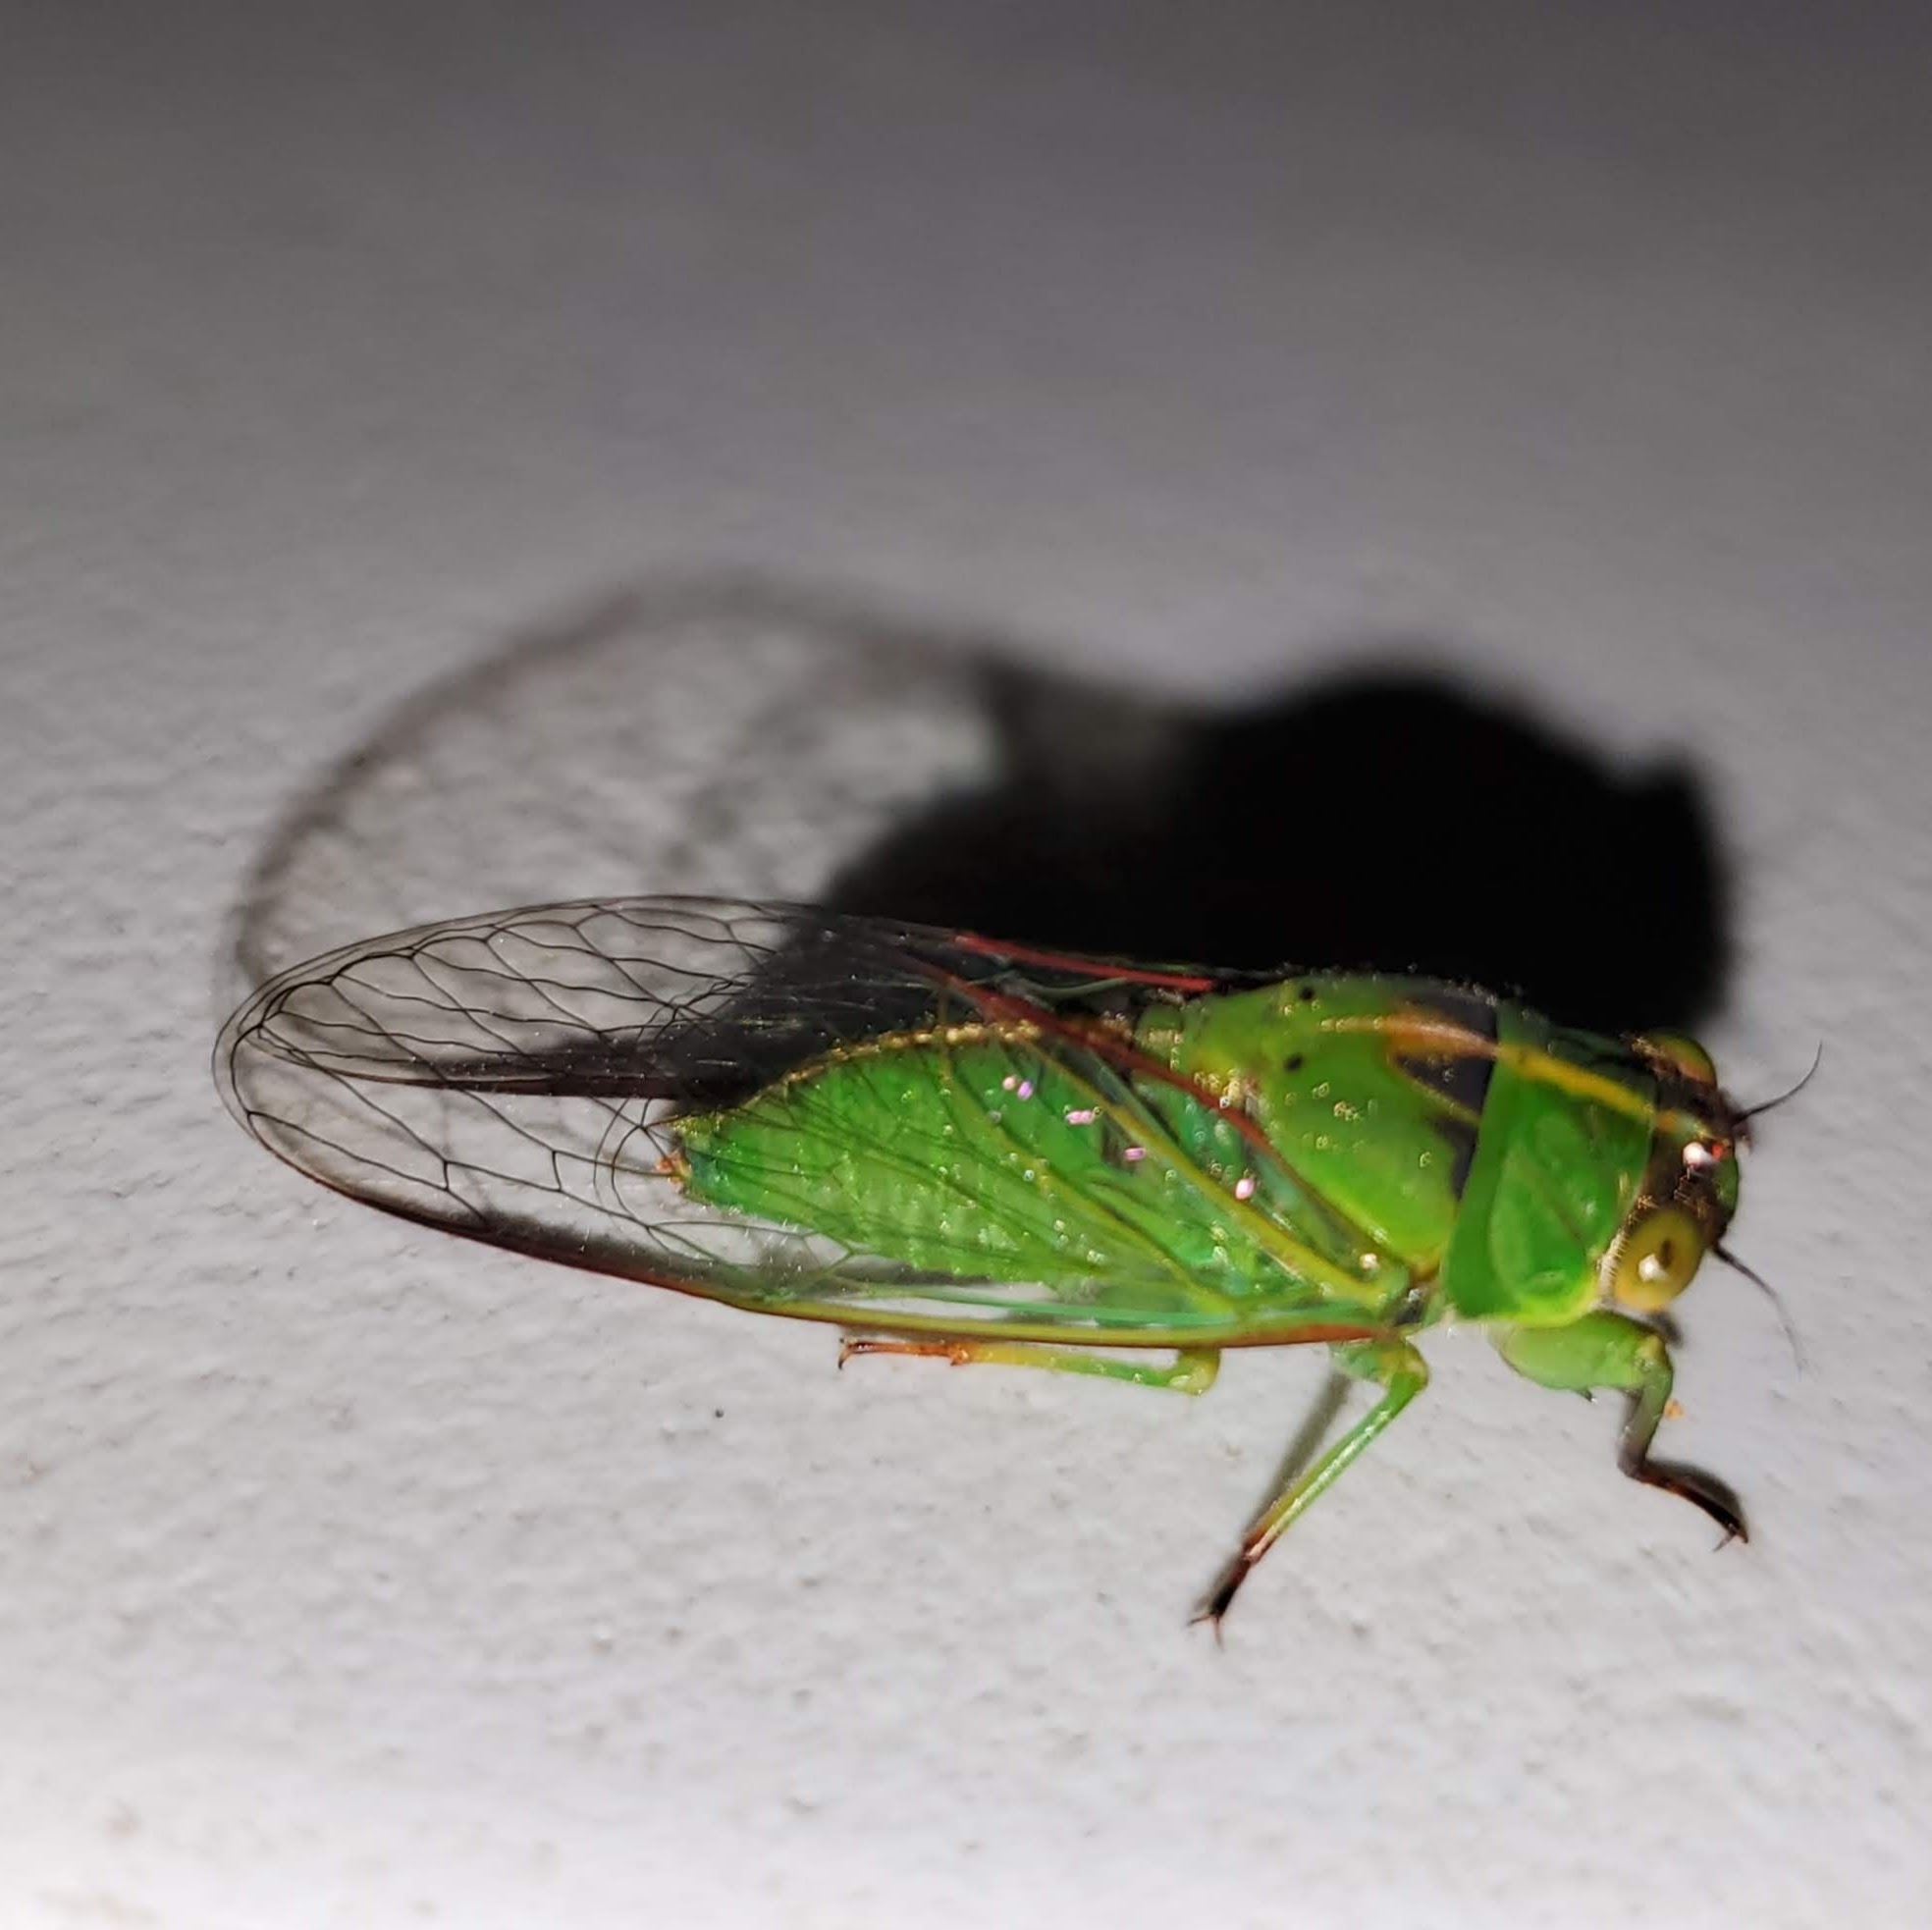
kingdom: Animalia
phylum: Arthropoda
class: Insecta
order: Hemiptera
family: Cicadidae
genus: Kikihia
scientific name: Kikihia cutora
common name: Northern snoring cicada
